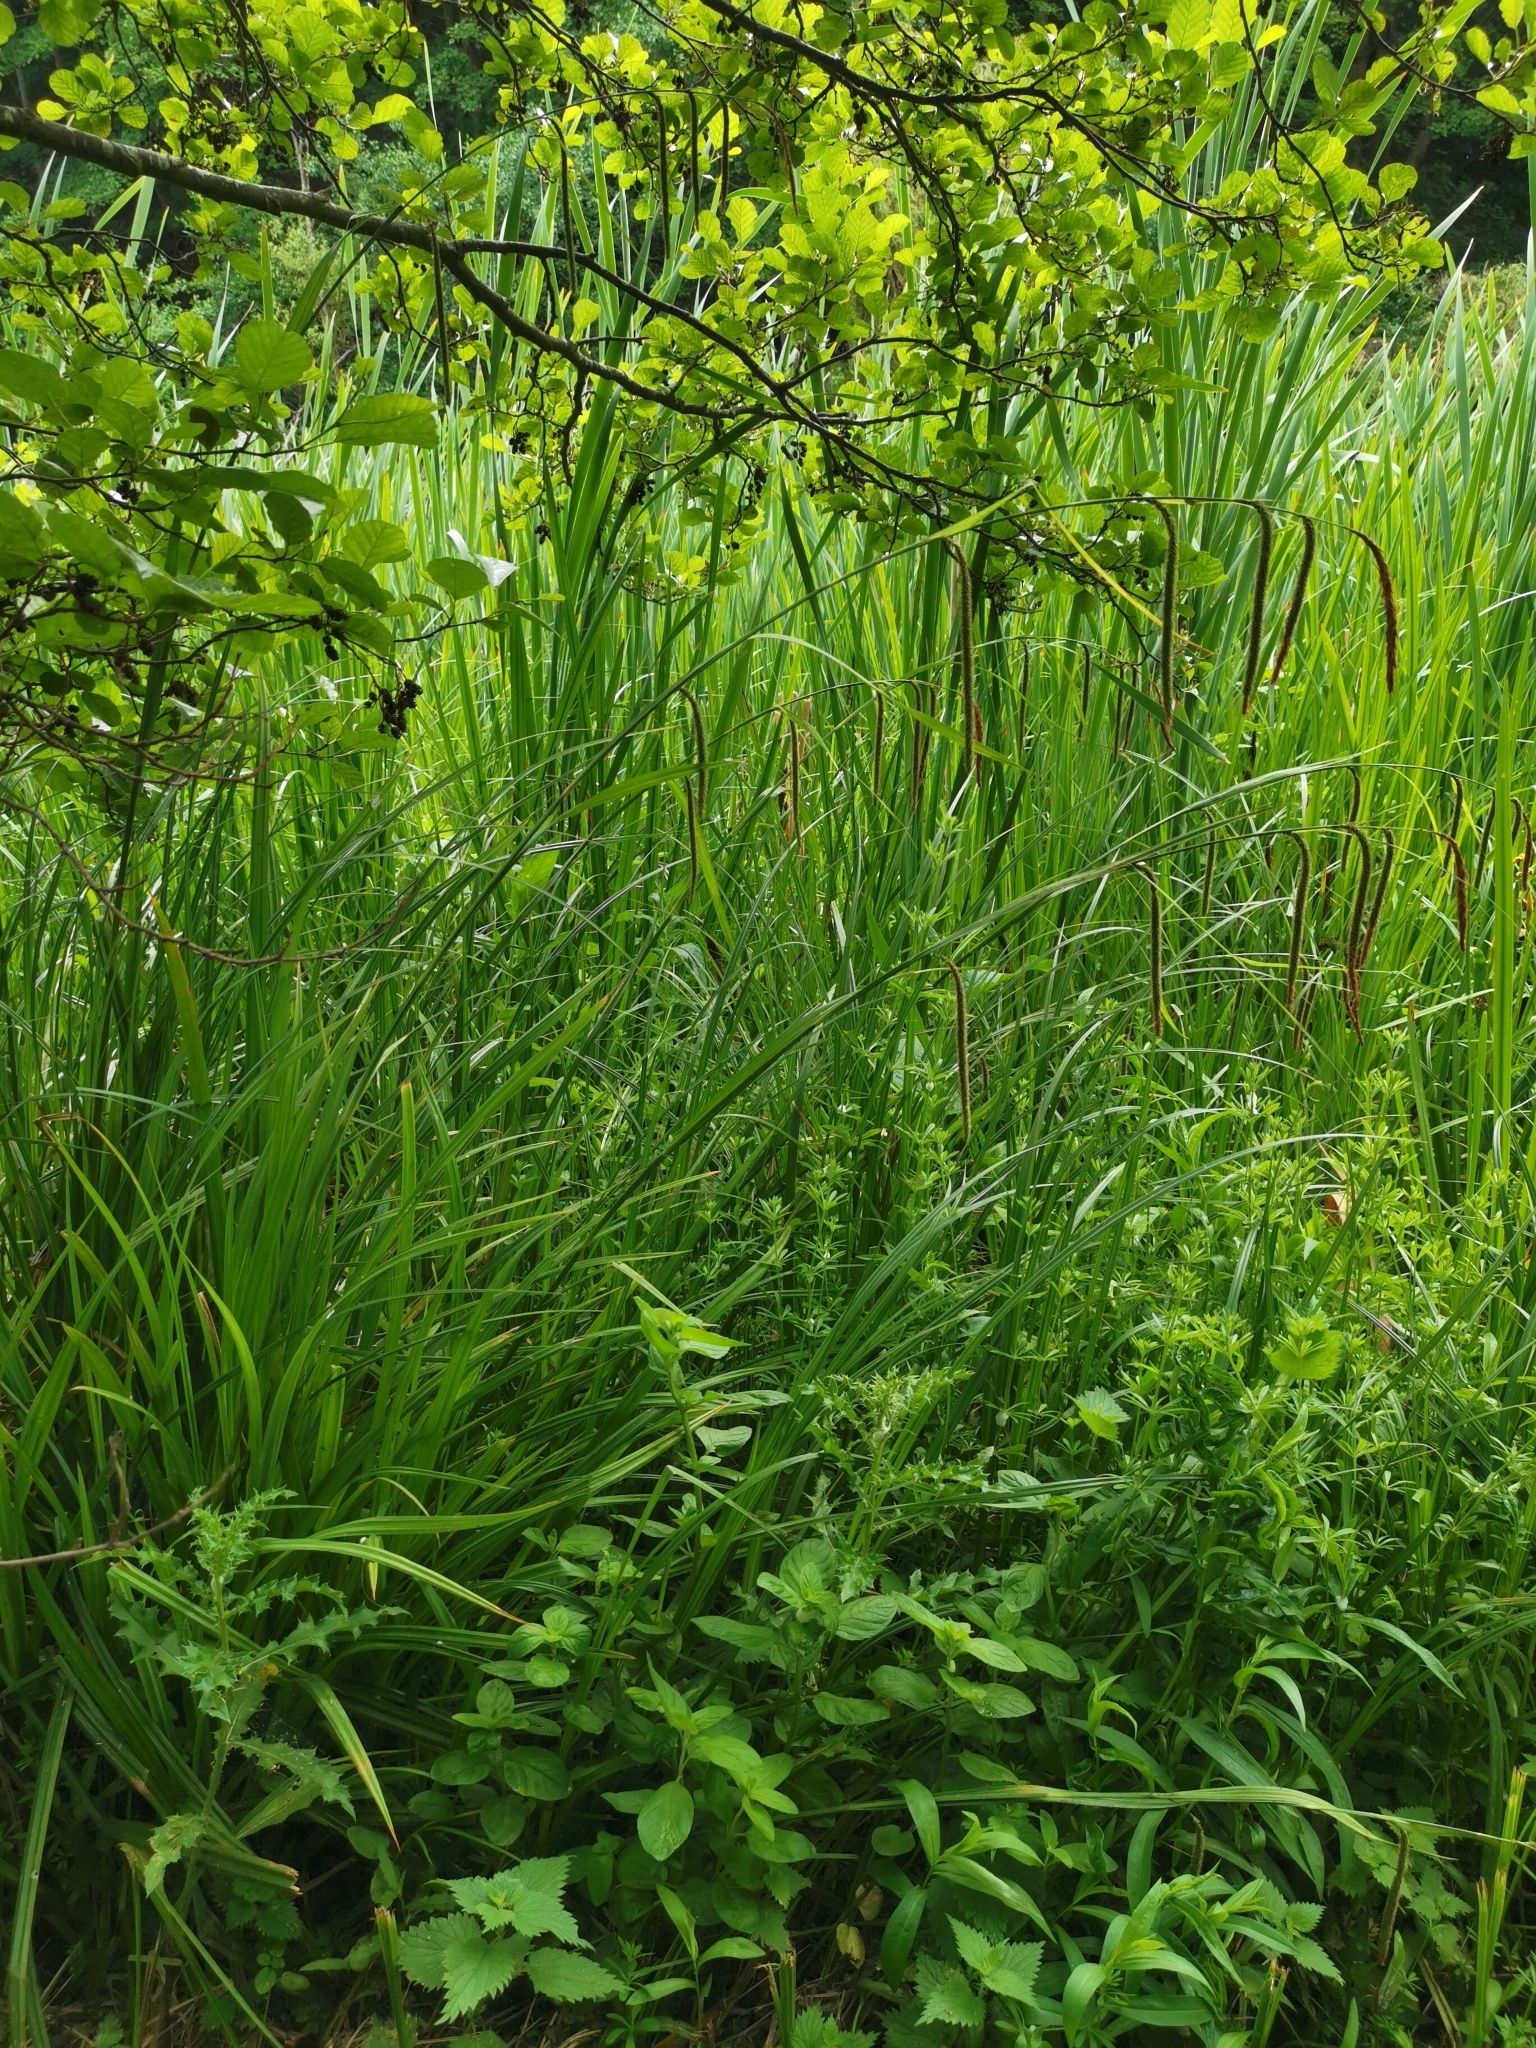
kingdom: Plantae
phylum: Tracheophyta
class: Liliopsida
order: Poales
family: Cyperaceae
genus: Carex
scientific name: Carex pendula
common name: Pendulous sedge
